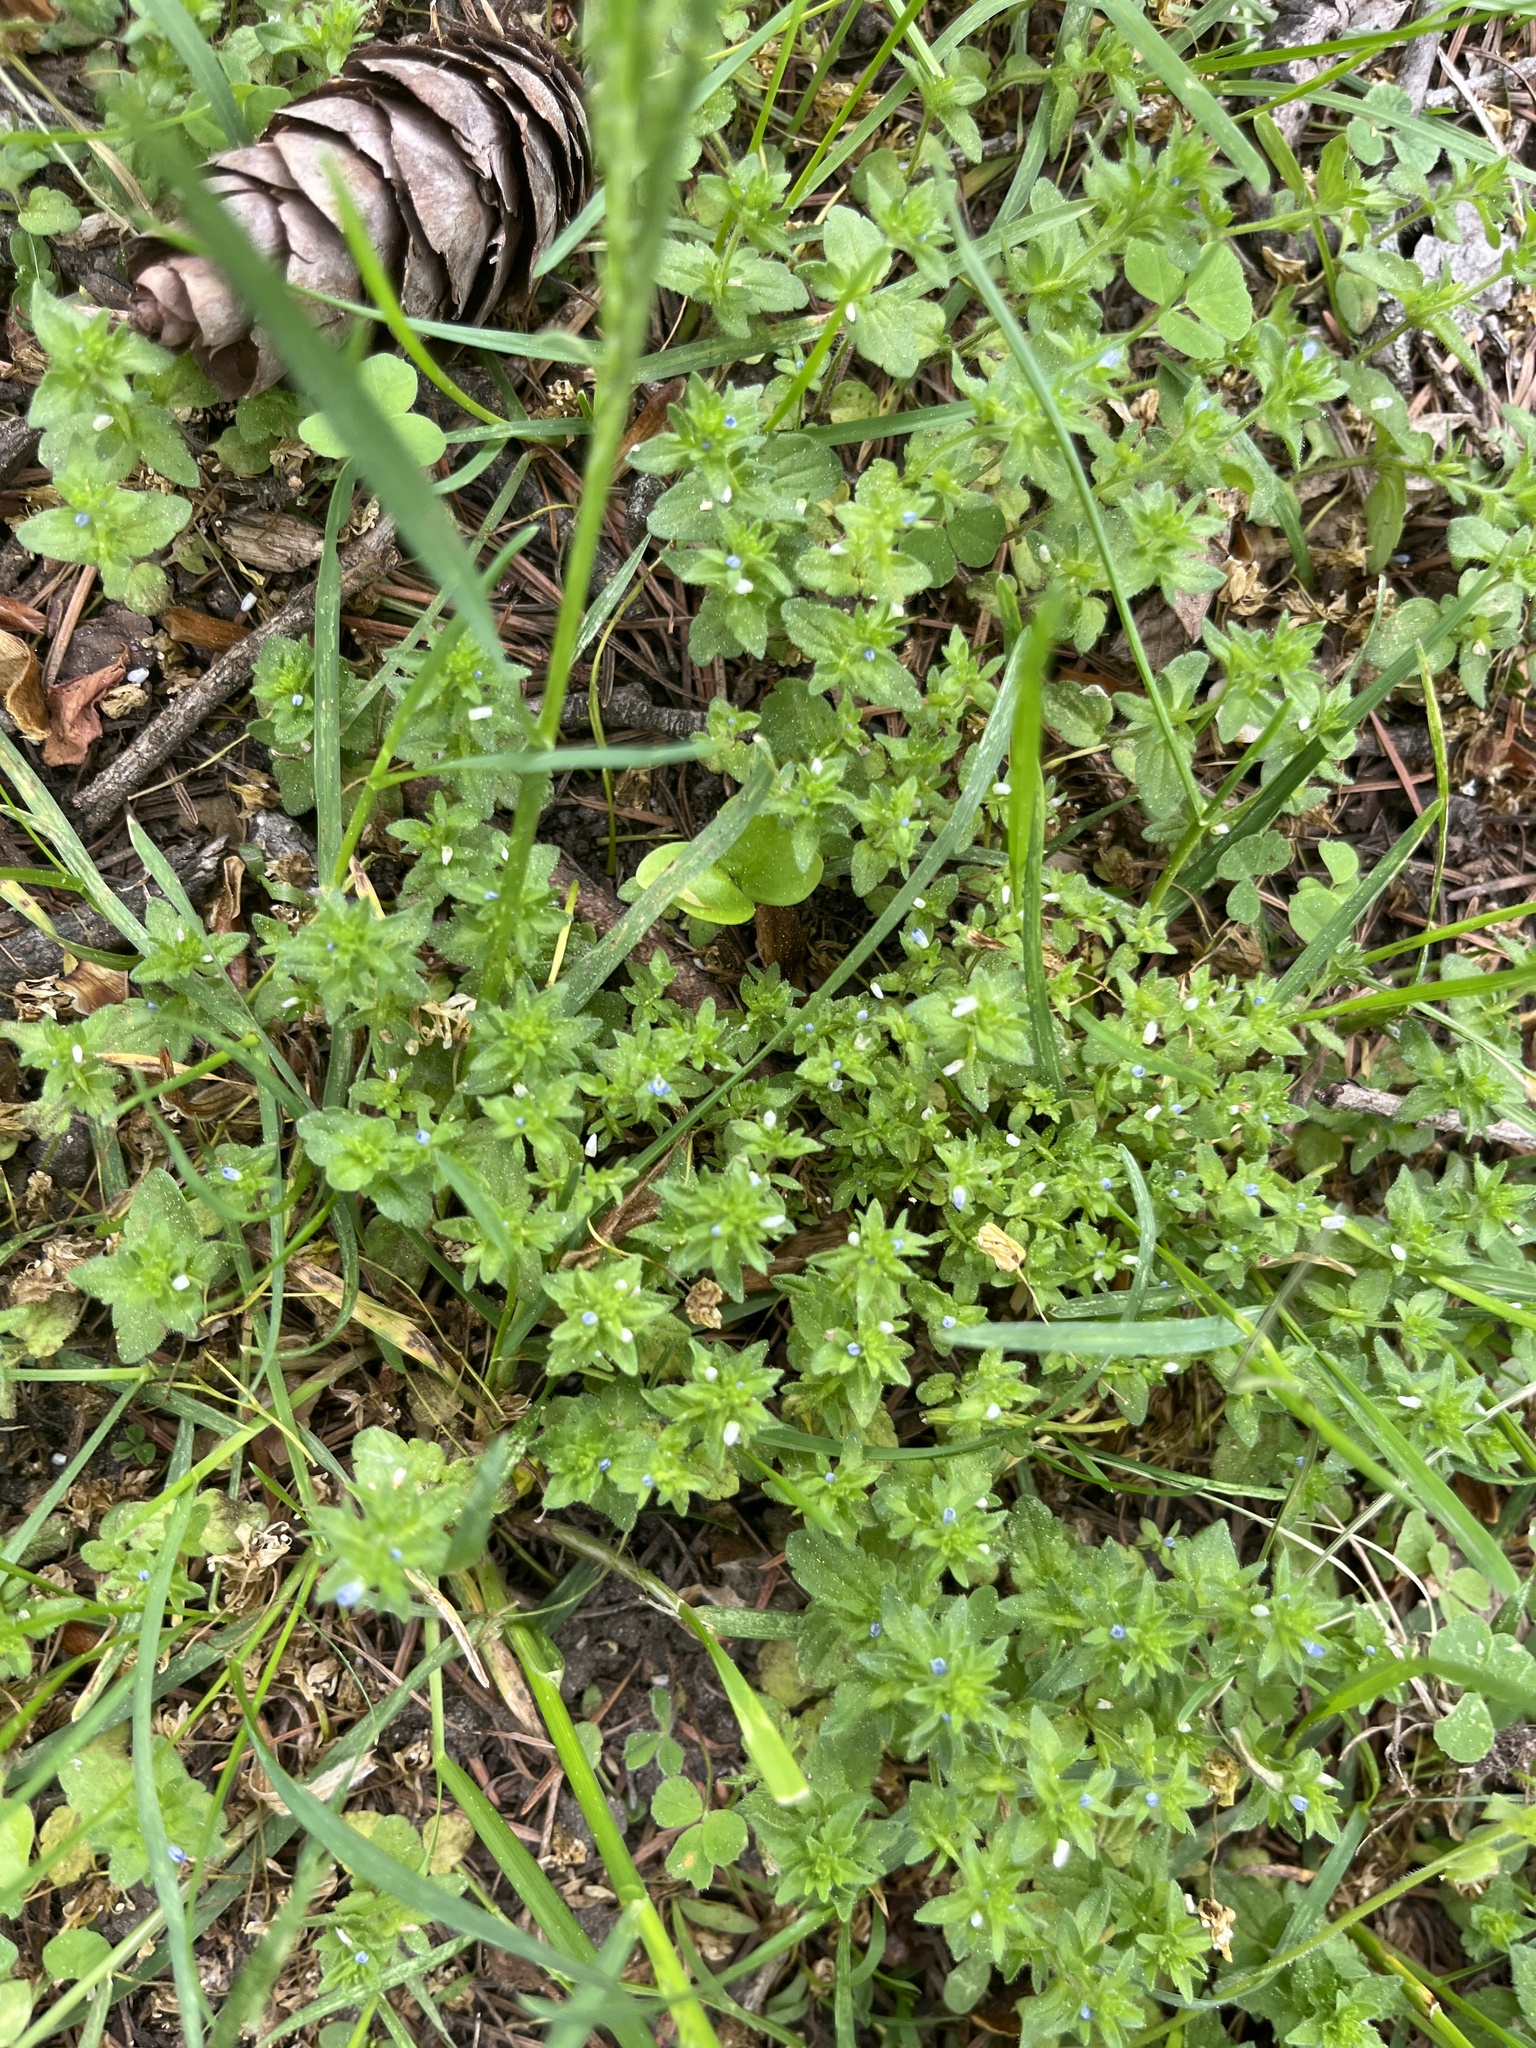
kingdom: Plantae
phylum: Tracheophyta
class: Magnoliopsida
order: Lamiales
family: Plantaginaceae
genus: Veronica
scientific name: Veronica arvensis
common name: Corn speedwell
